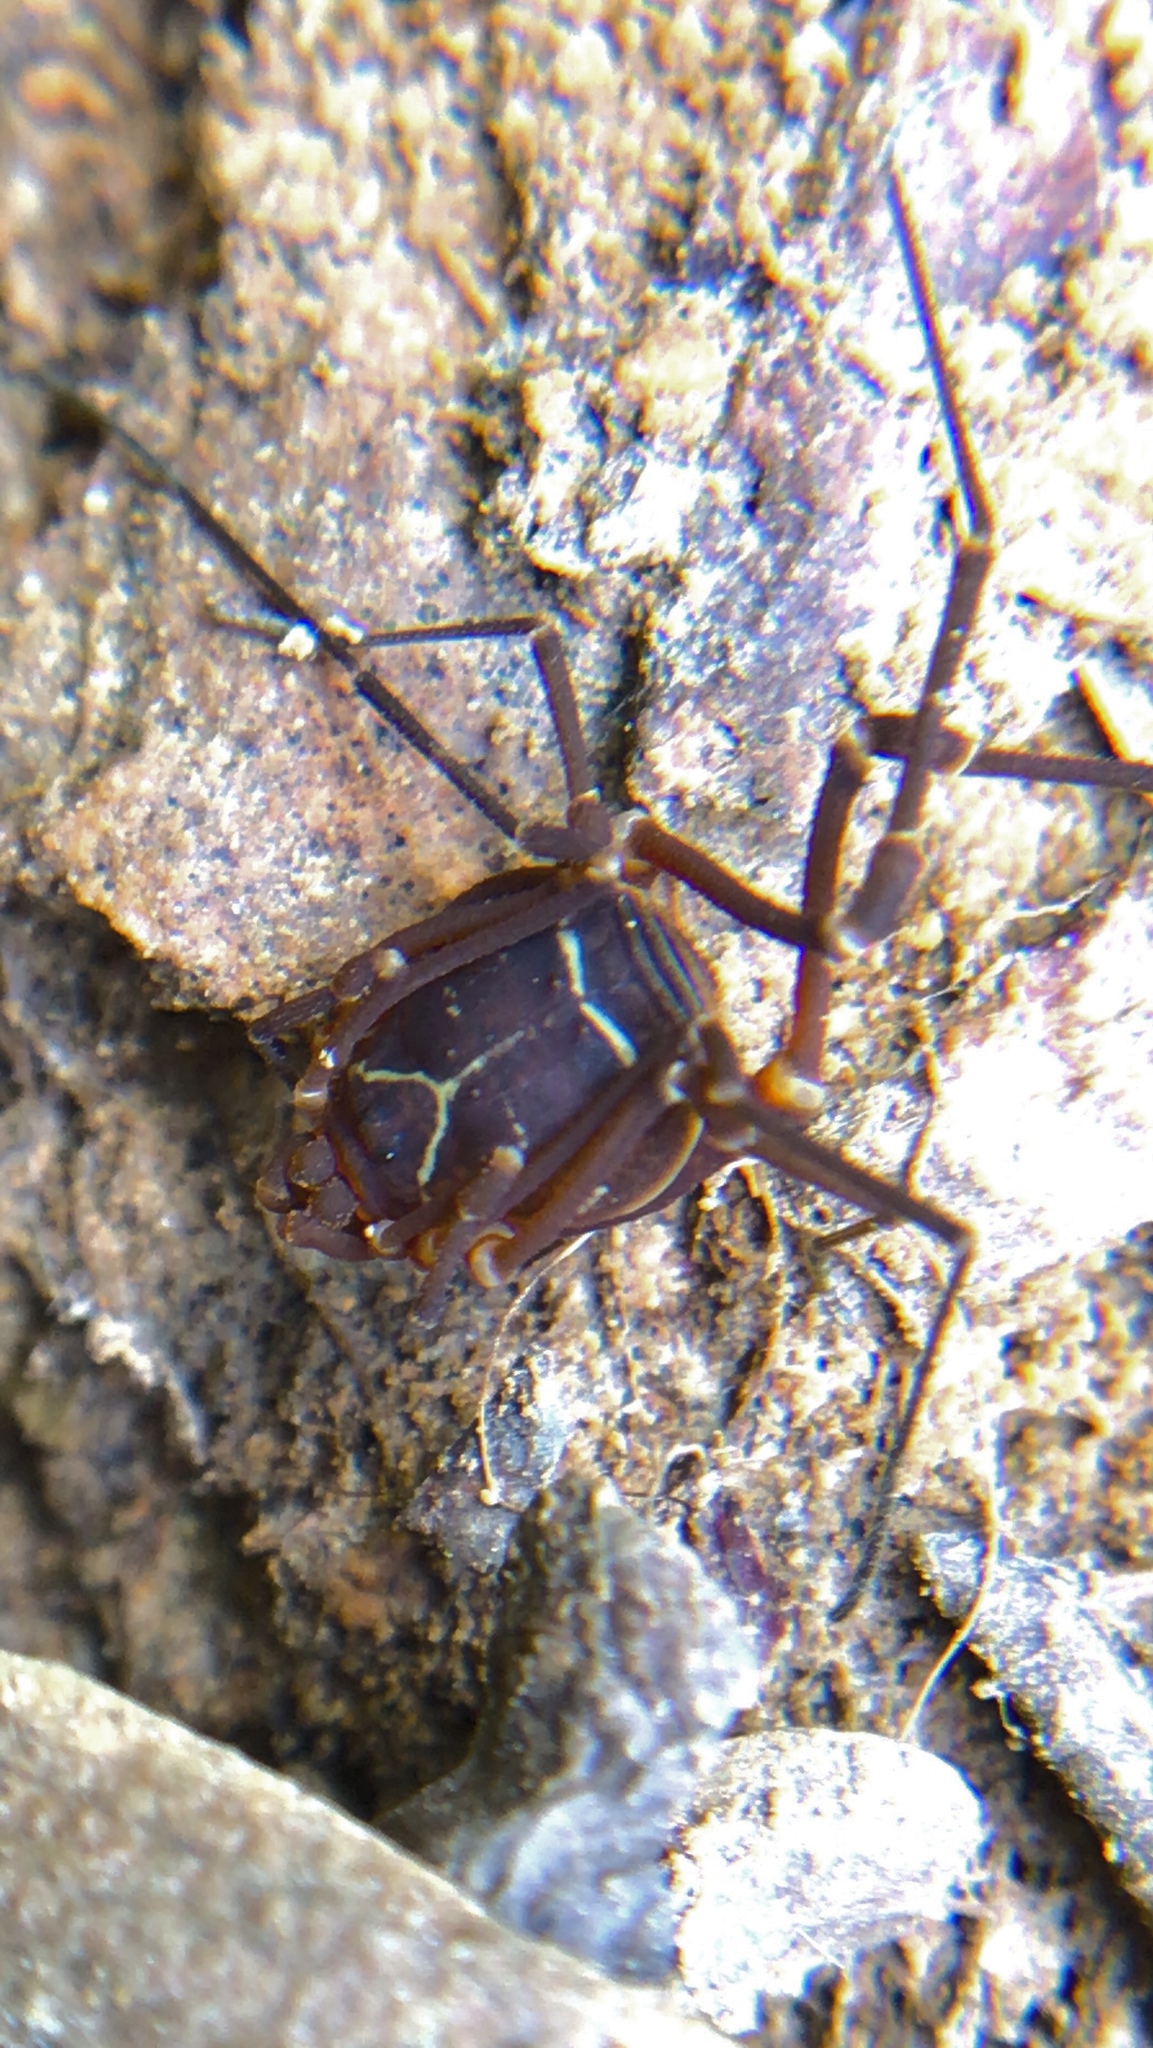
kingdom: Animalia
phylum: Arthropoda
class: Arachnida
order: Opiliones
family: Cosmetidae
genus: Libitioides
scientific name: Libitioides sayi
